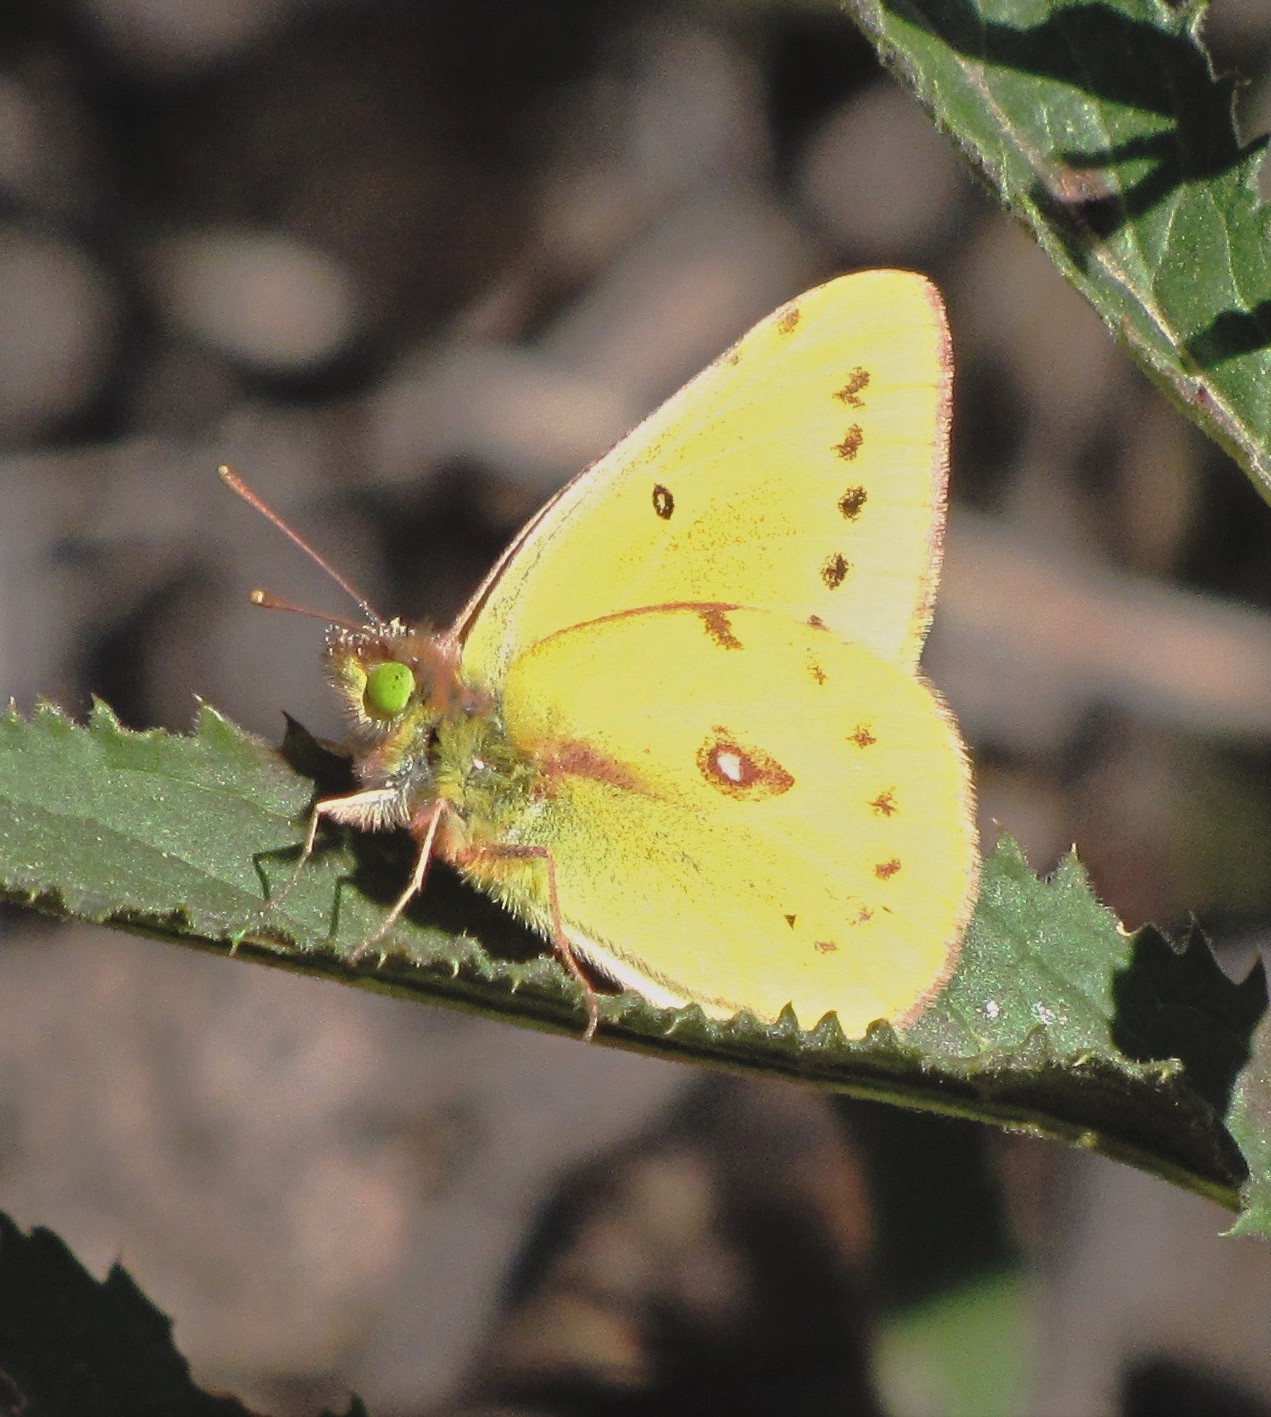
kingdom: Animalia
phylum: Arthropoda
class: Insecta
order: Lepidoptera
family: Pieridae
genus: Colias
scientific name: Colias lesbia
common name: Lesbia clouded yellow
